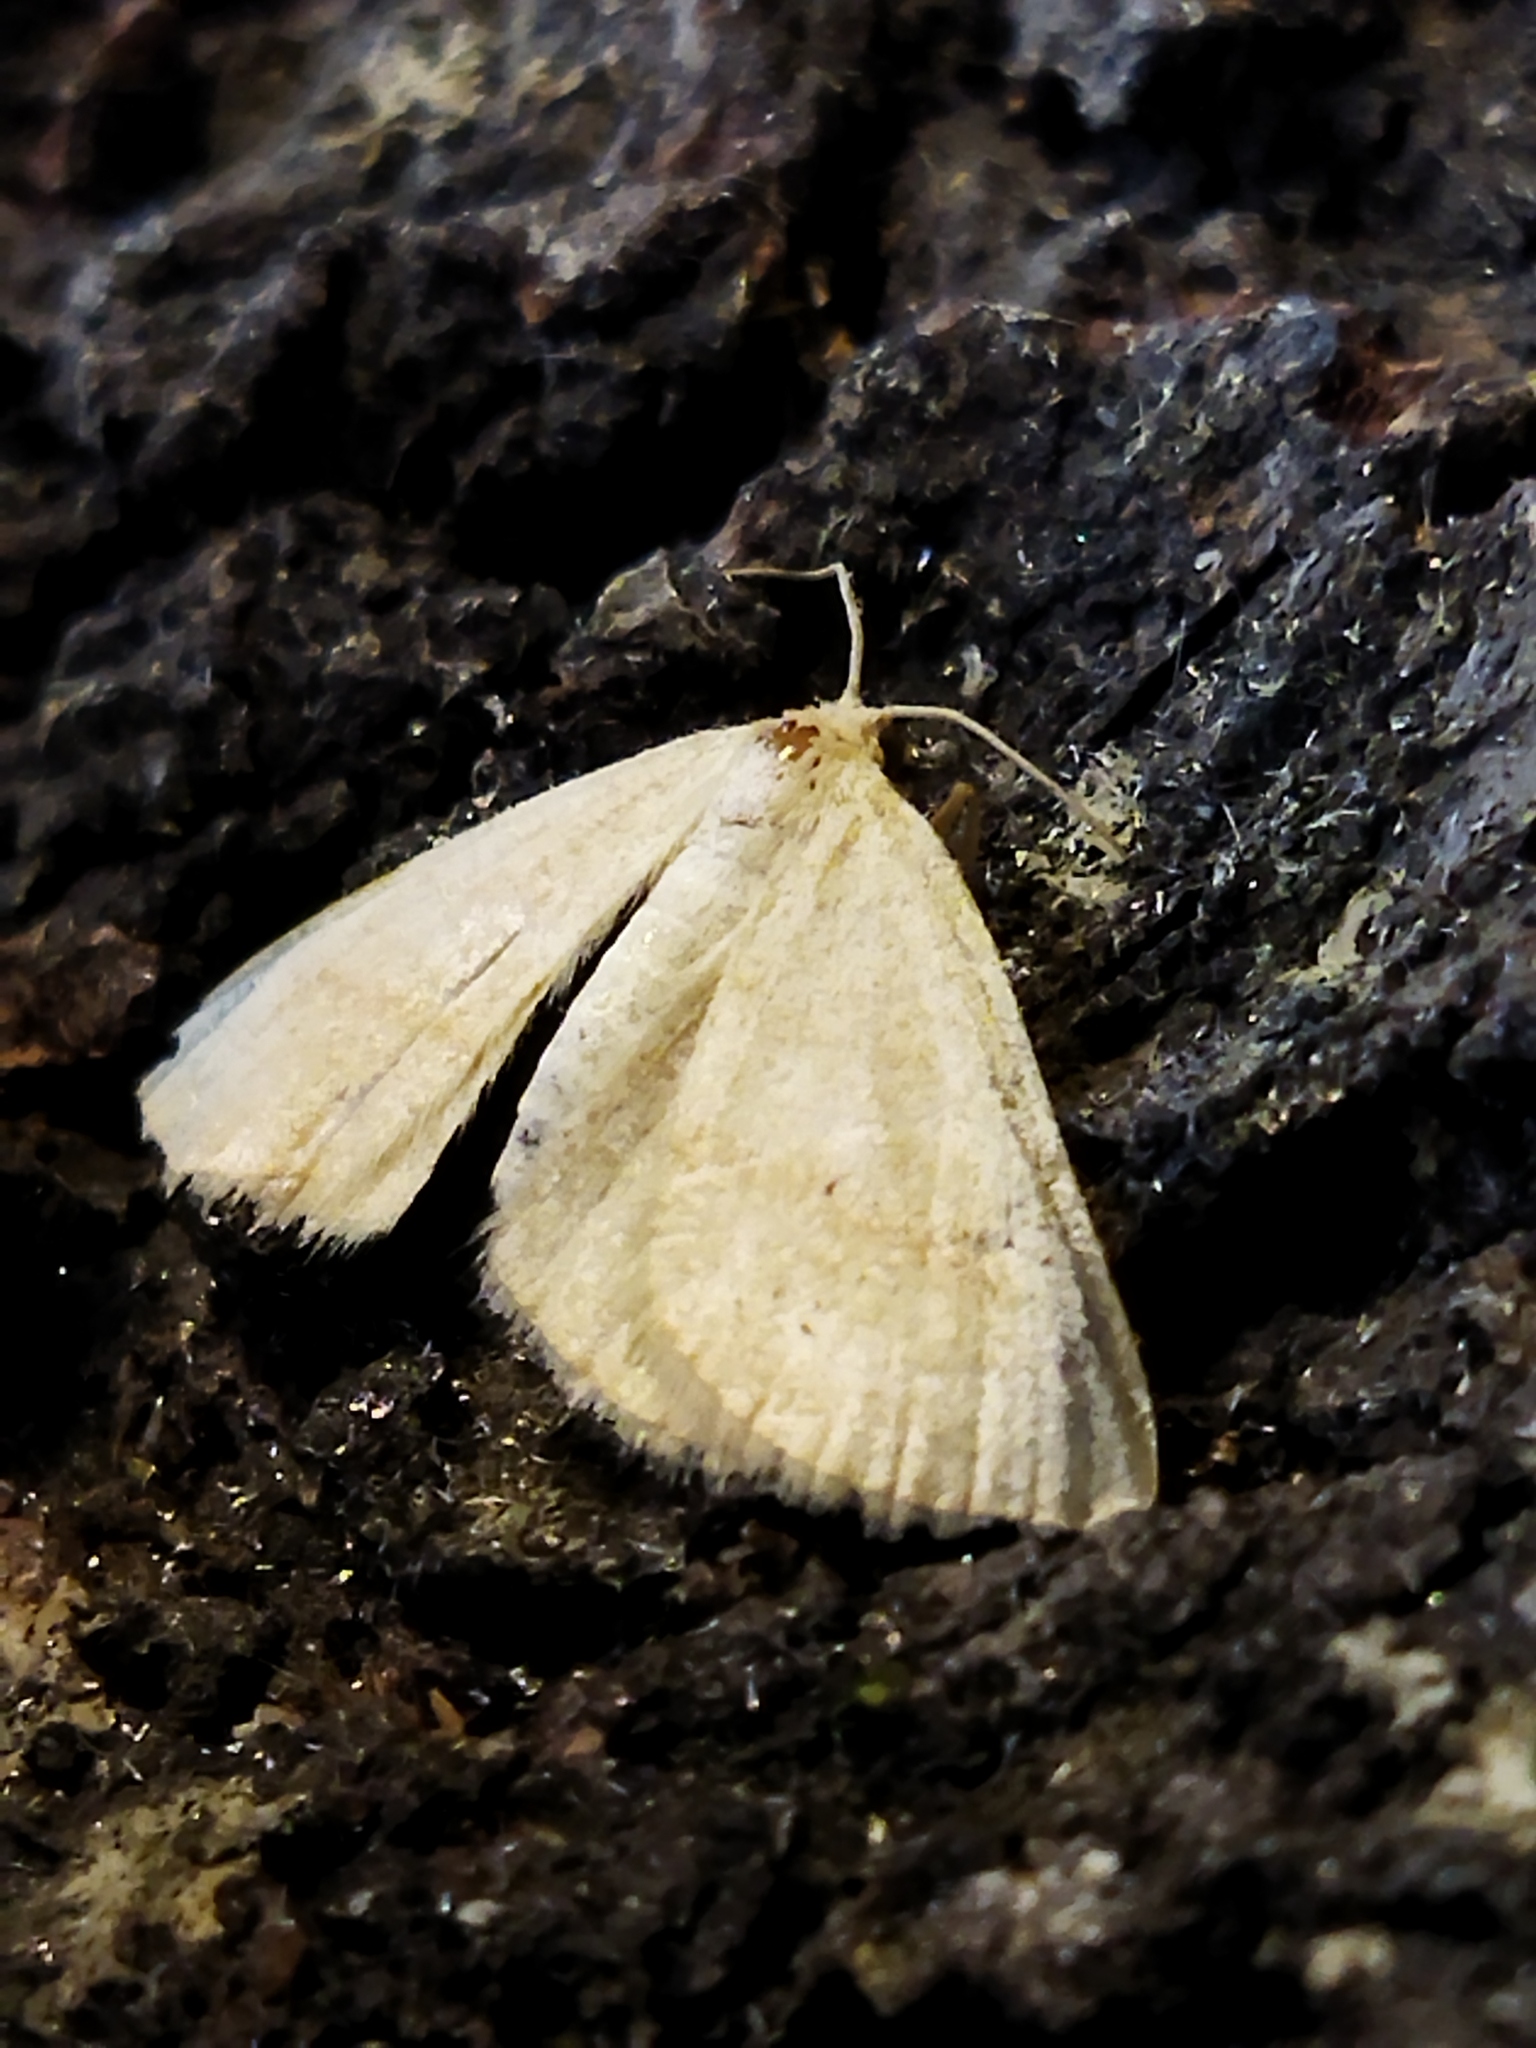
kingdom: Animalia
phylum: Arthropoda
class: Insecta
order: Lepidoptera
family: Geometridae
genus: Aplasta
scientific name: Aplasta ononaria
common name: Rest harrow
